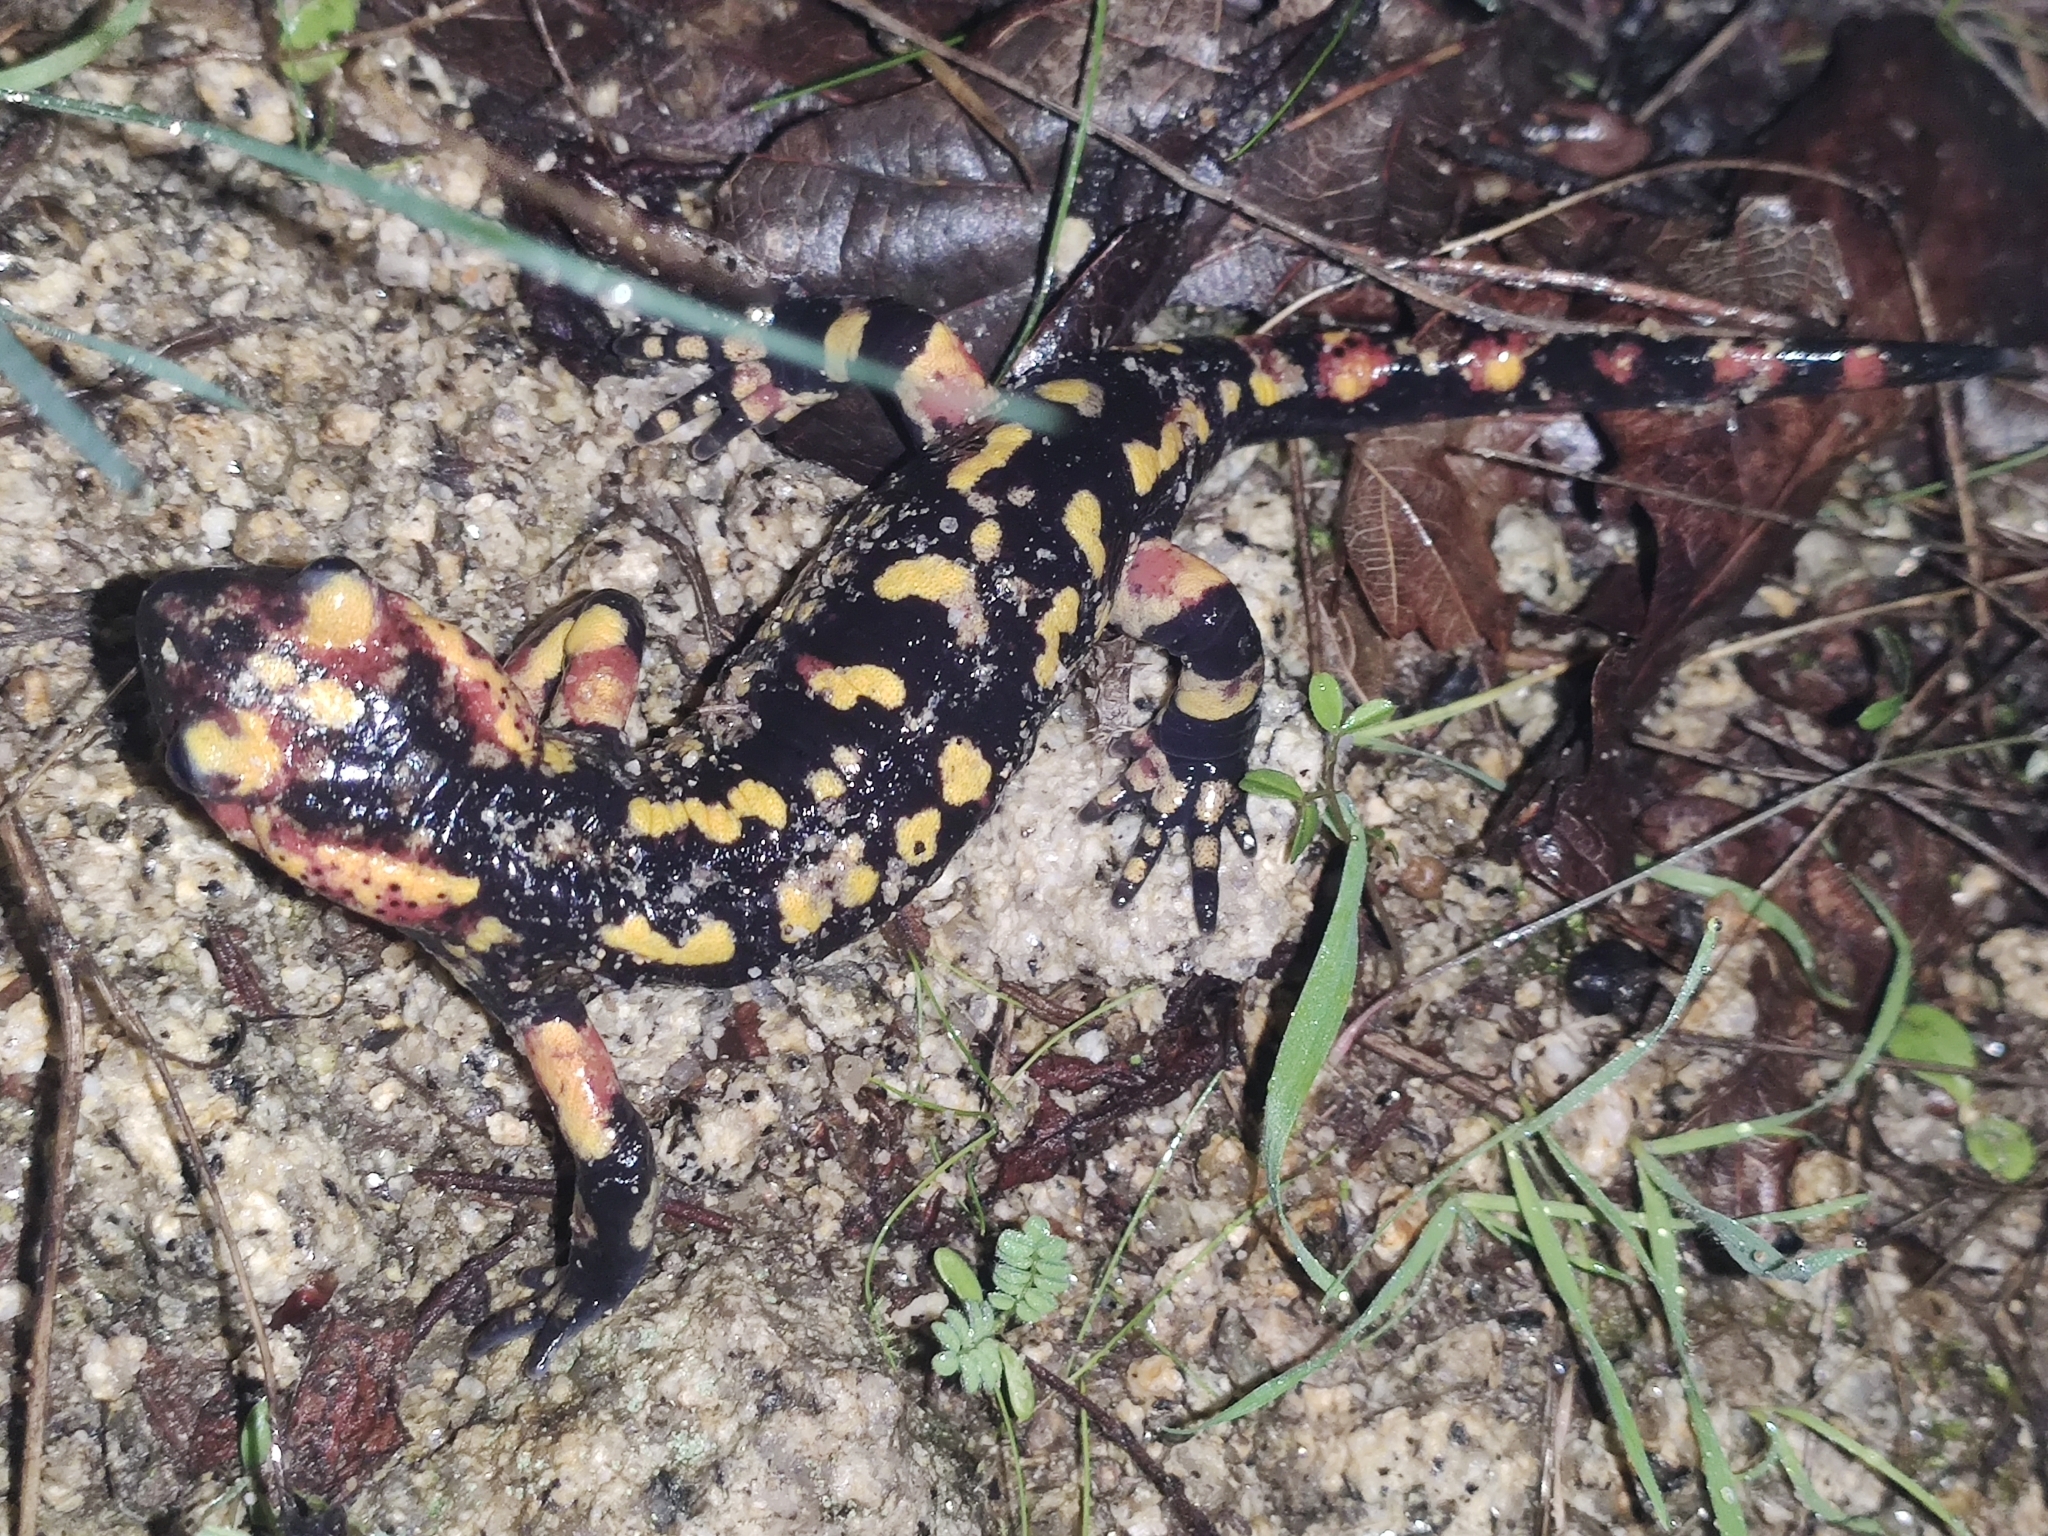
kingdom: Animalia
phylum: Chordata
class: Amphibia
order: Caudata
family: Salamandridae
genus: Salamandra
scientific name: Salamandra salamandra
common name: Fire salamander
